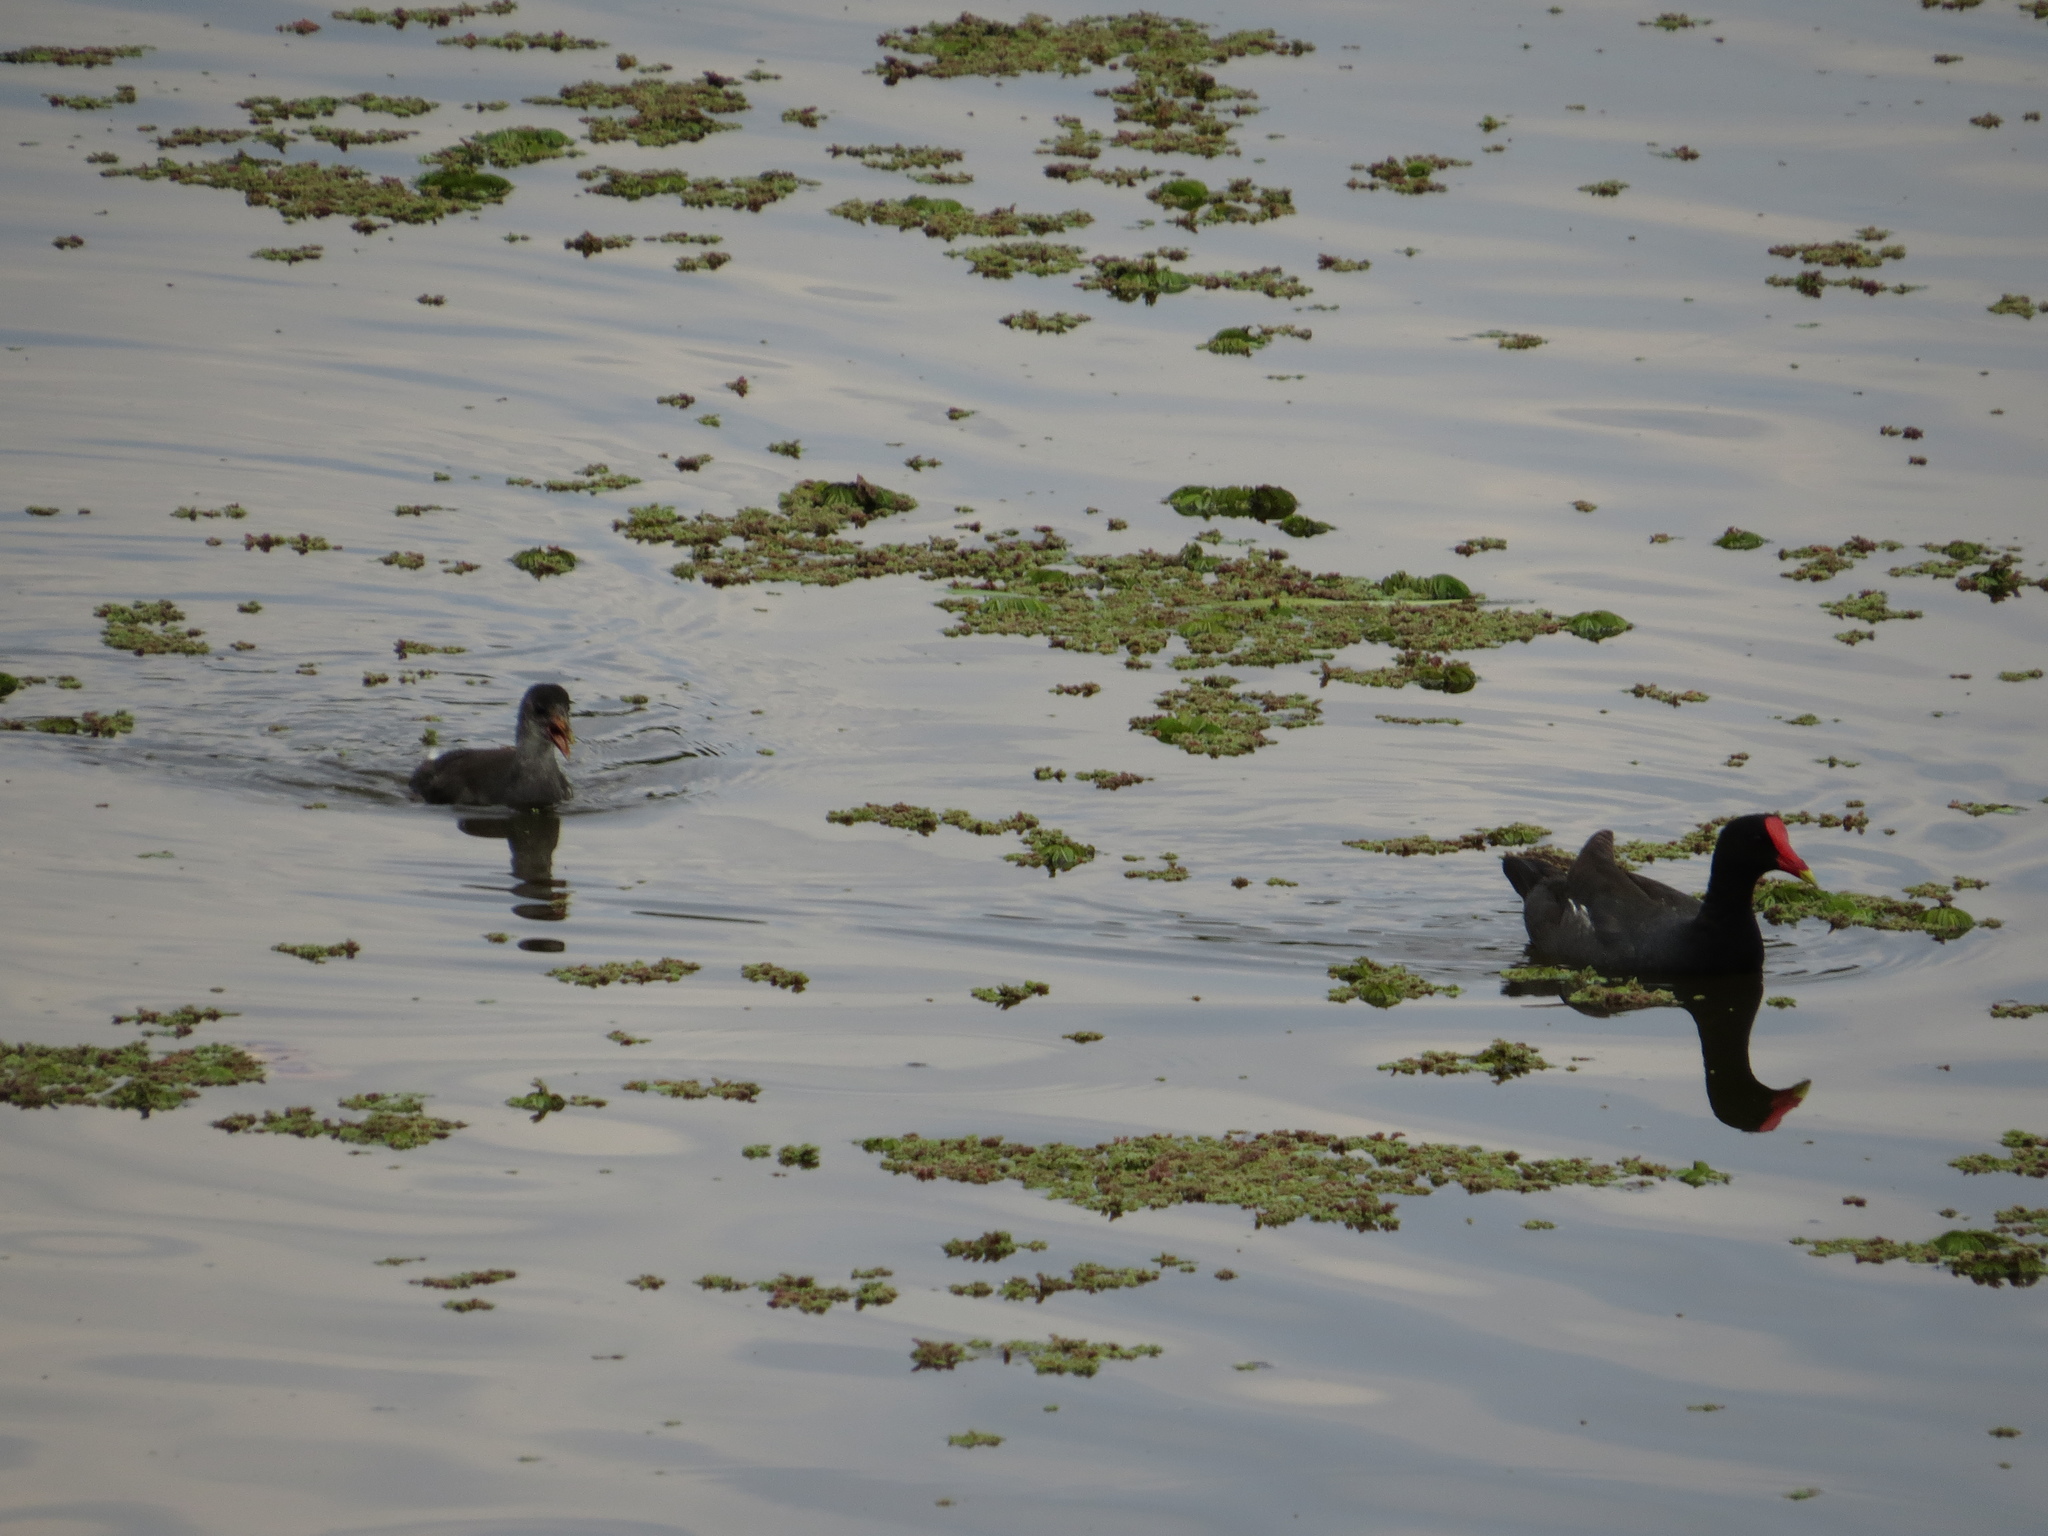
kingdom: Animalia
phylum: Chordata
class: Aves
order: Gruiformes
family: Rallidae
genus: Gallinula
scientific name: Gallinula chloropus
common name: Common moorhen
